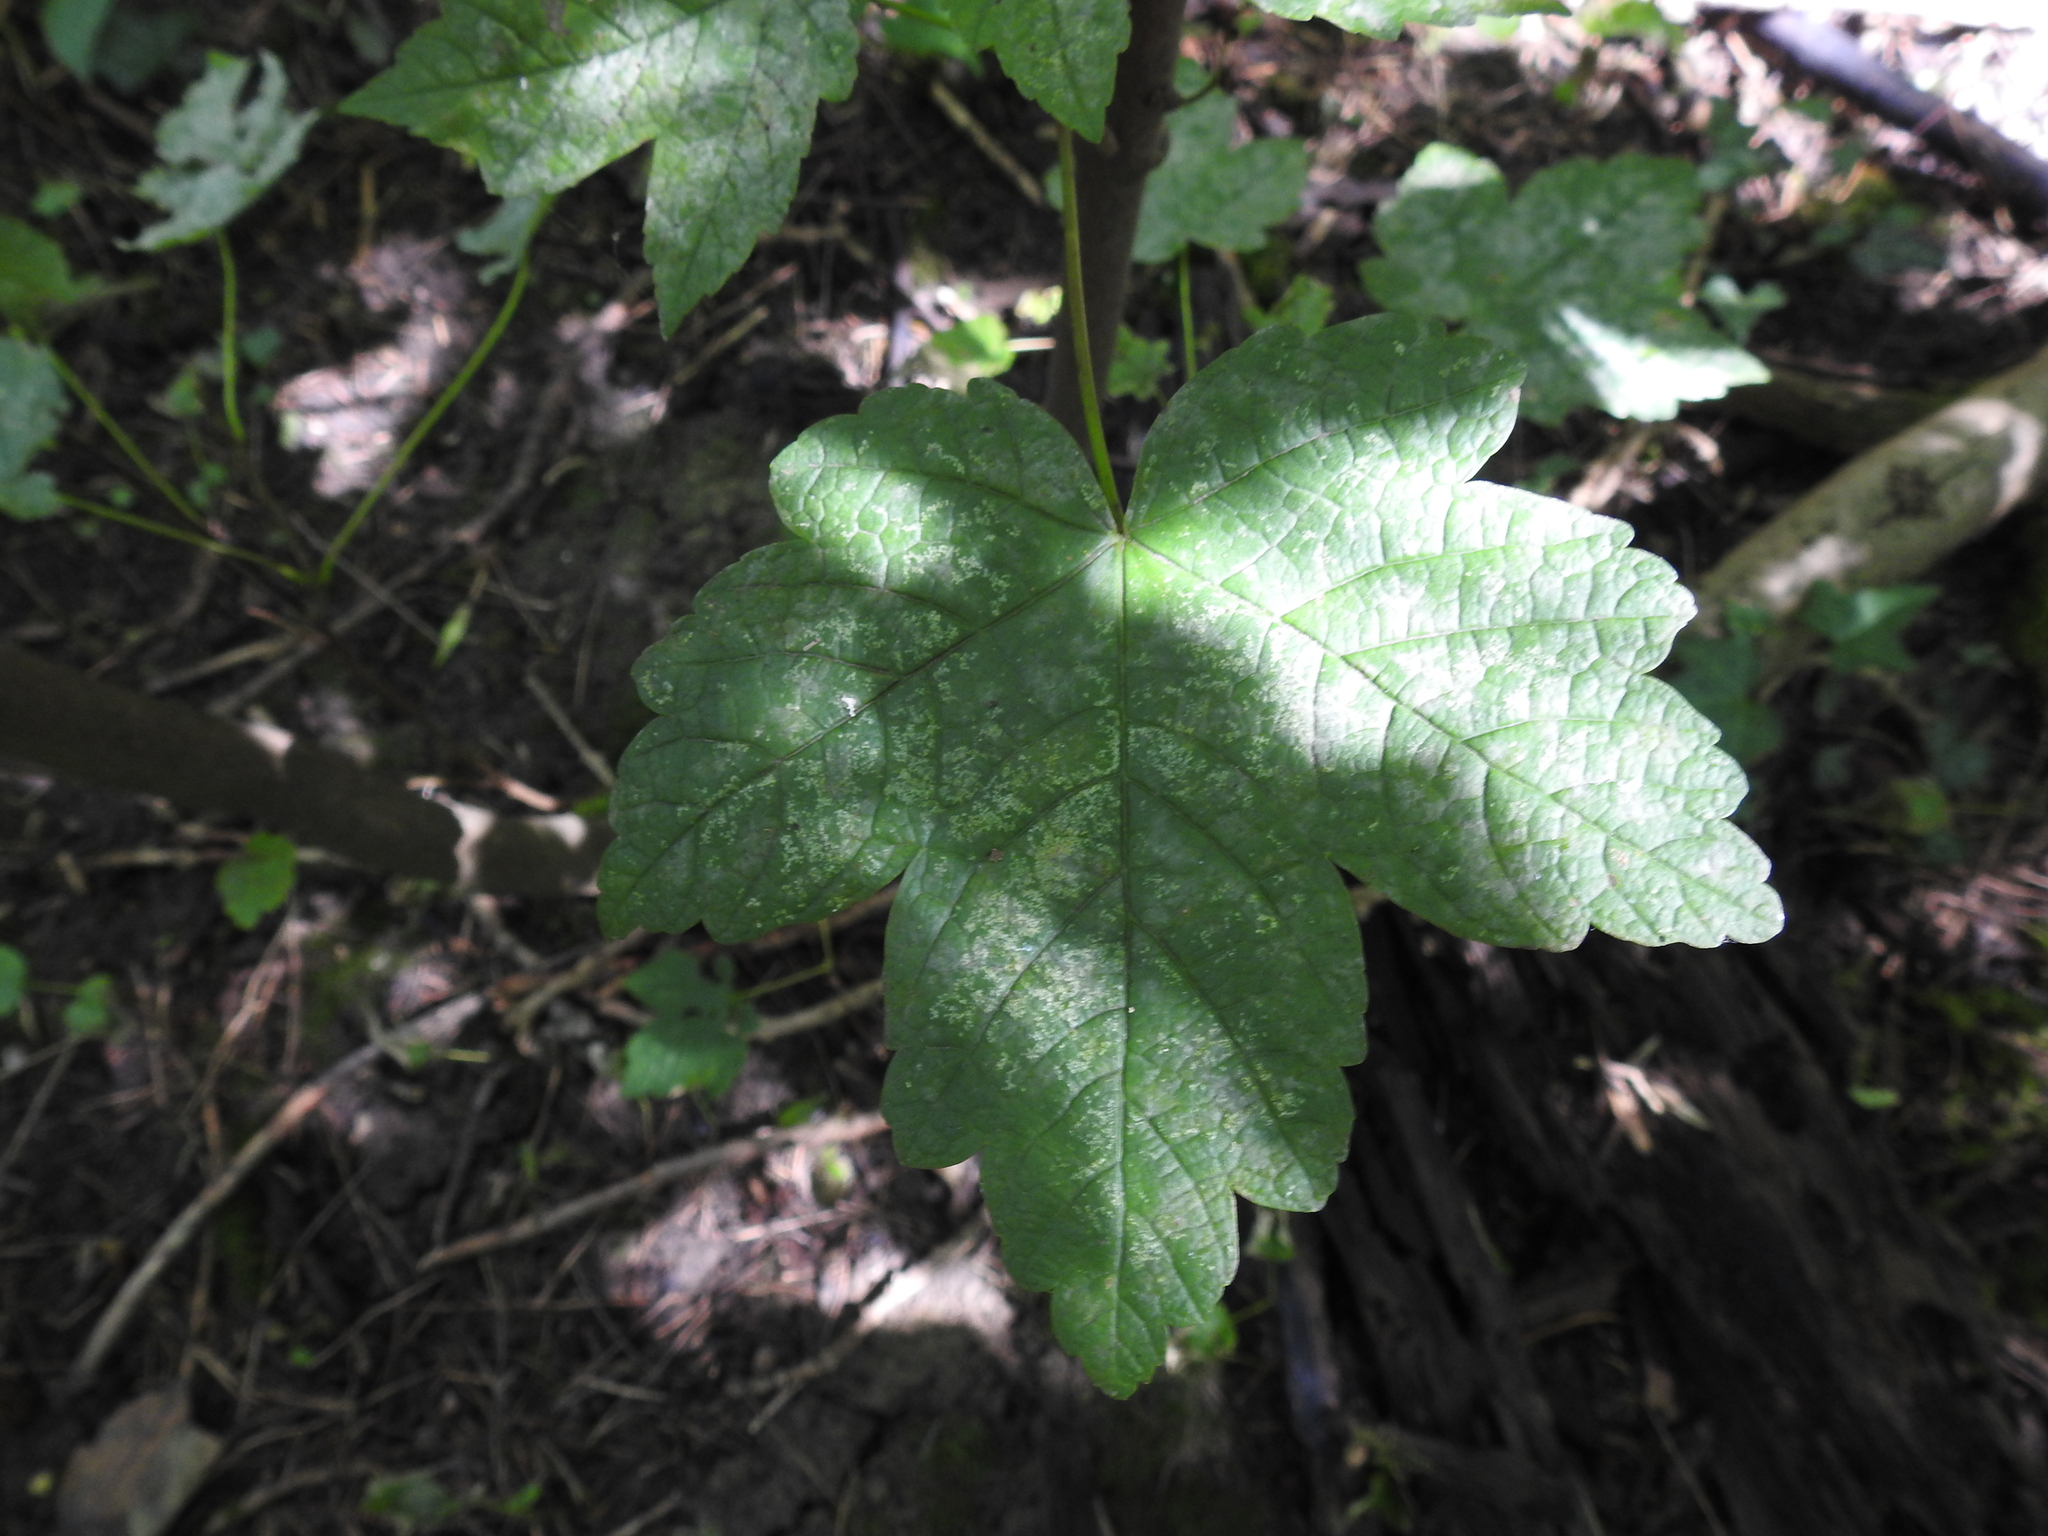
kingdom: Plantae
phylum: Tracheophyta
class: Magnoliopsida
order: Sapindales
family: Sapindaceae
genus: Acer
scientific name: Acer pseudoplatanus
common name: Sycamore
